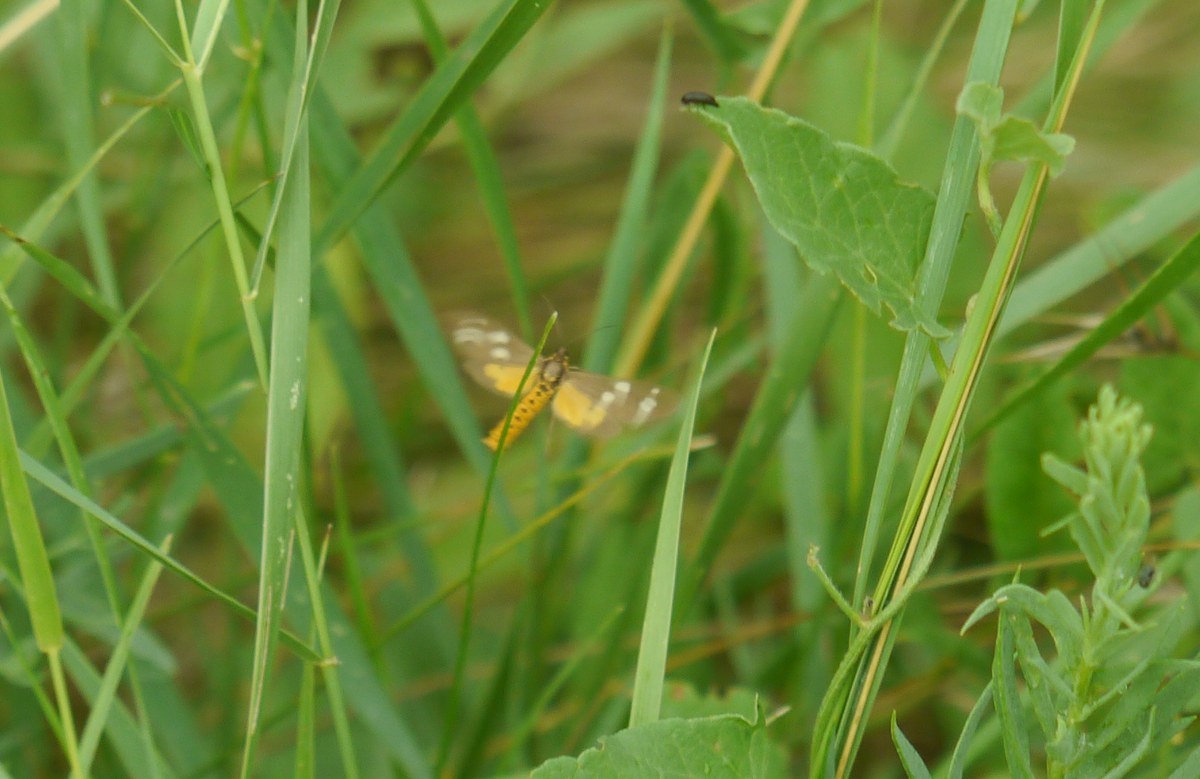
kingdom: Animalia
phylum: Arthropoda
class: Insecta
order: Lepidoptera
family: Erebidae
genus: Dysauxes
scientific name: Dysauxes punctata
